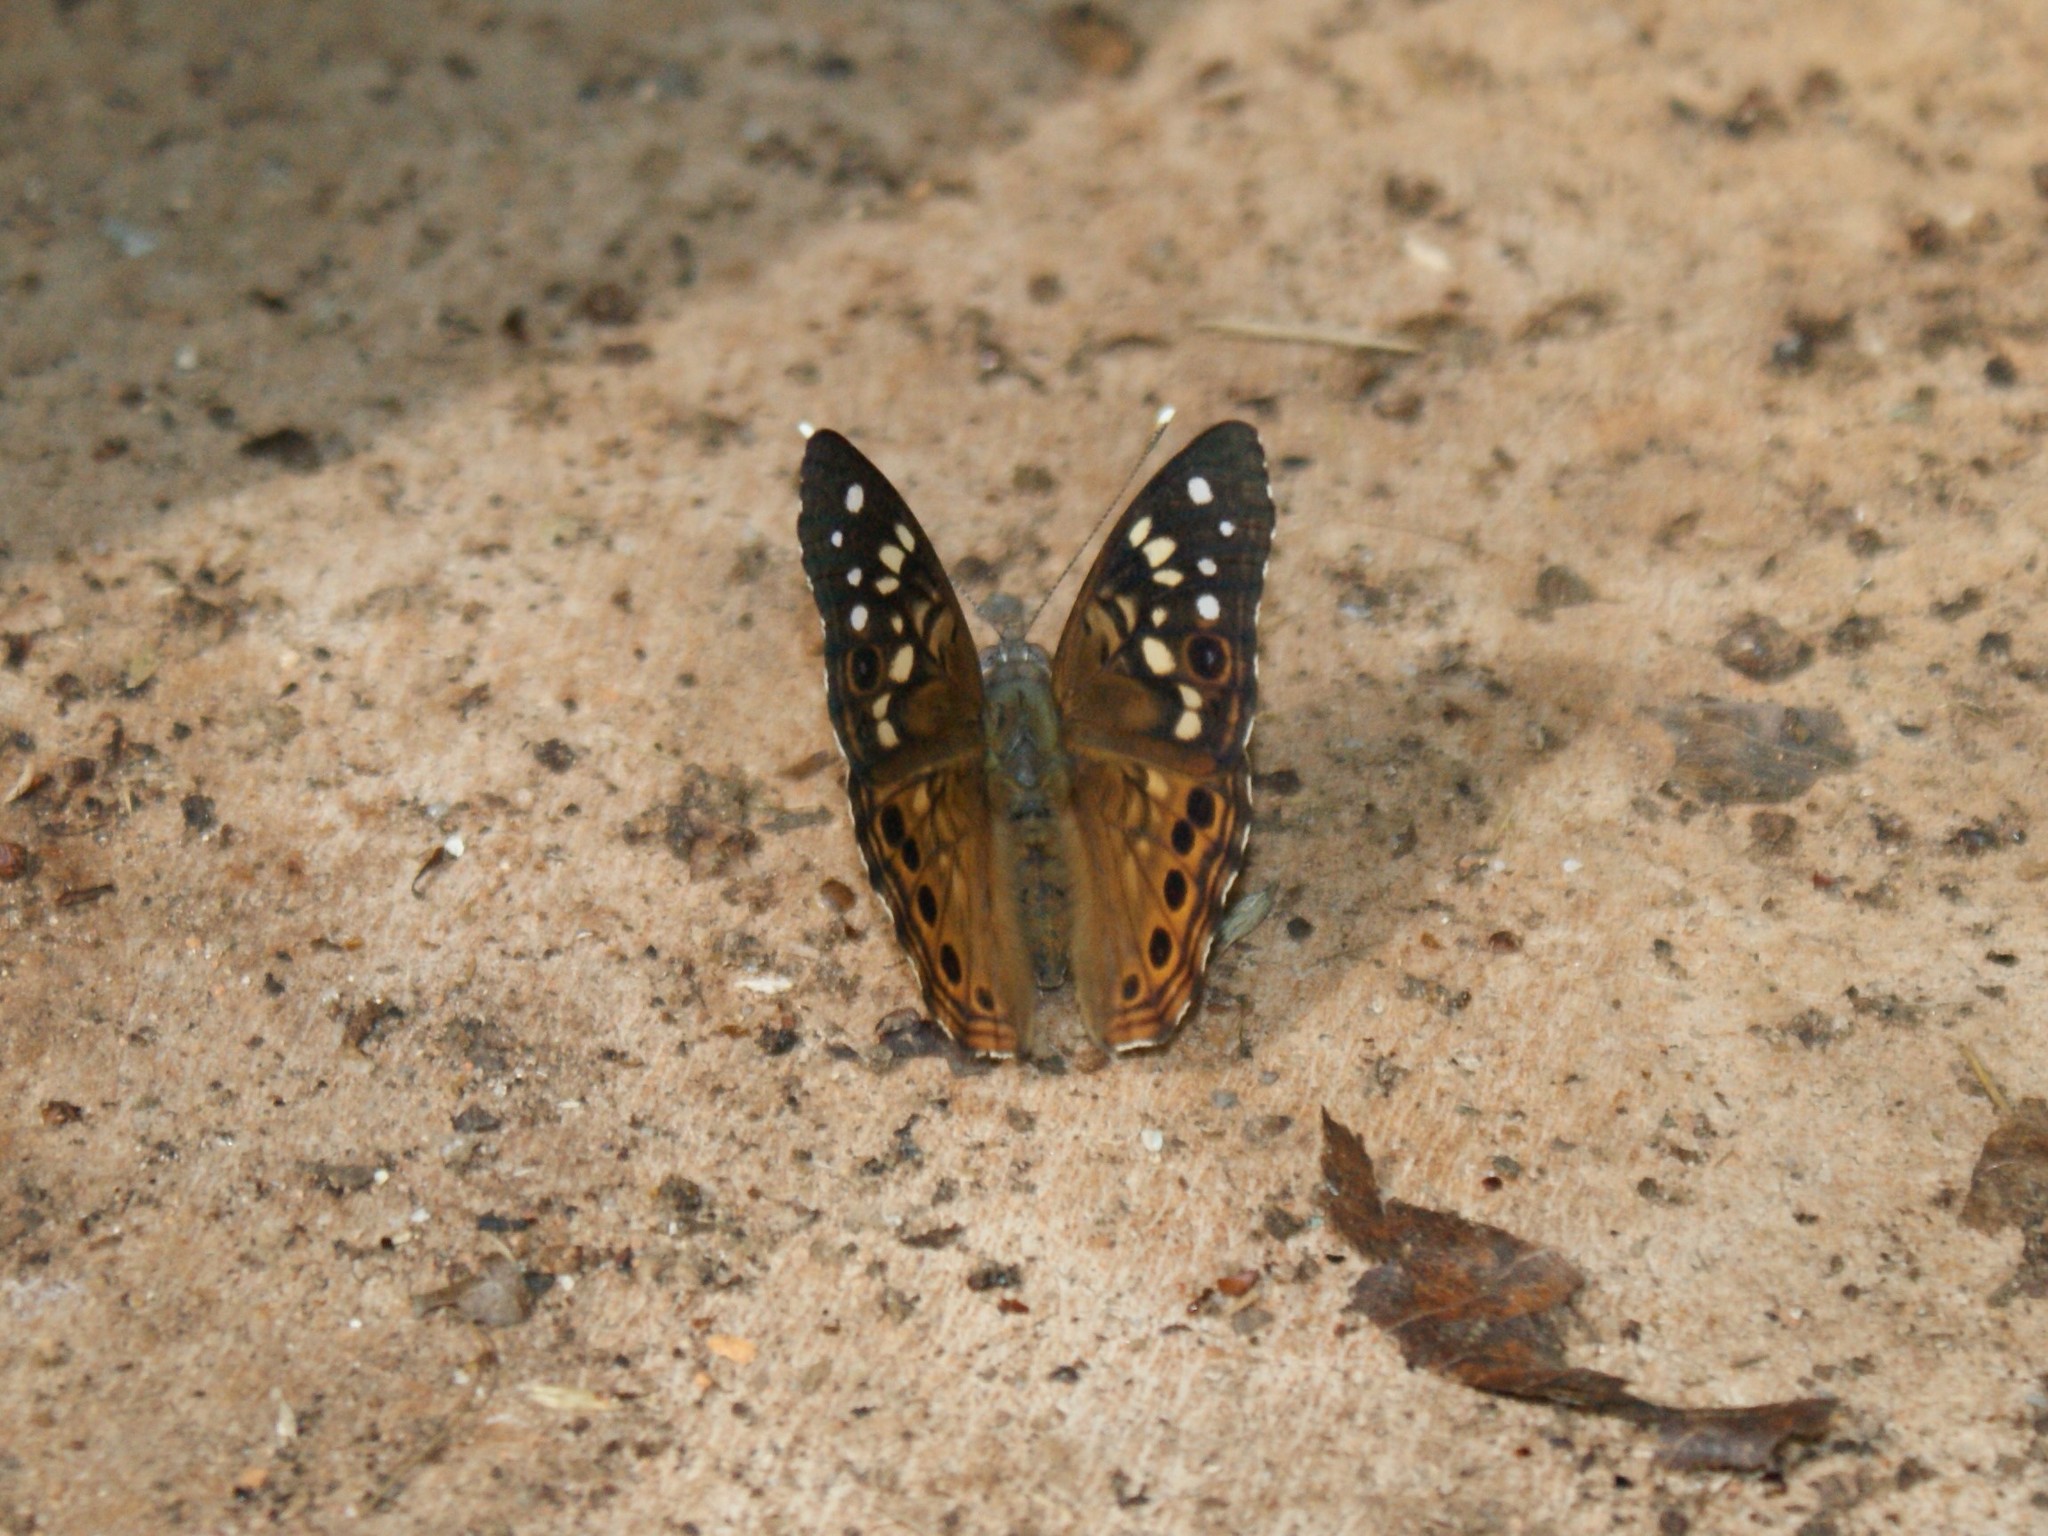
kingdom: Animalia
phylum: Arthropoda
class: Insecta
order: Lepidoptera
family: Nymphalidae
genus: Asterocampa
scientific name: Asterocampa celtis
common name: Hackberry emperor
